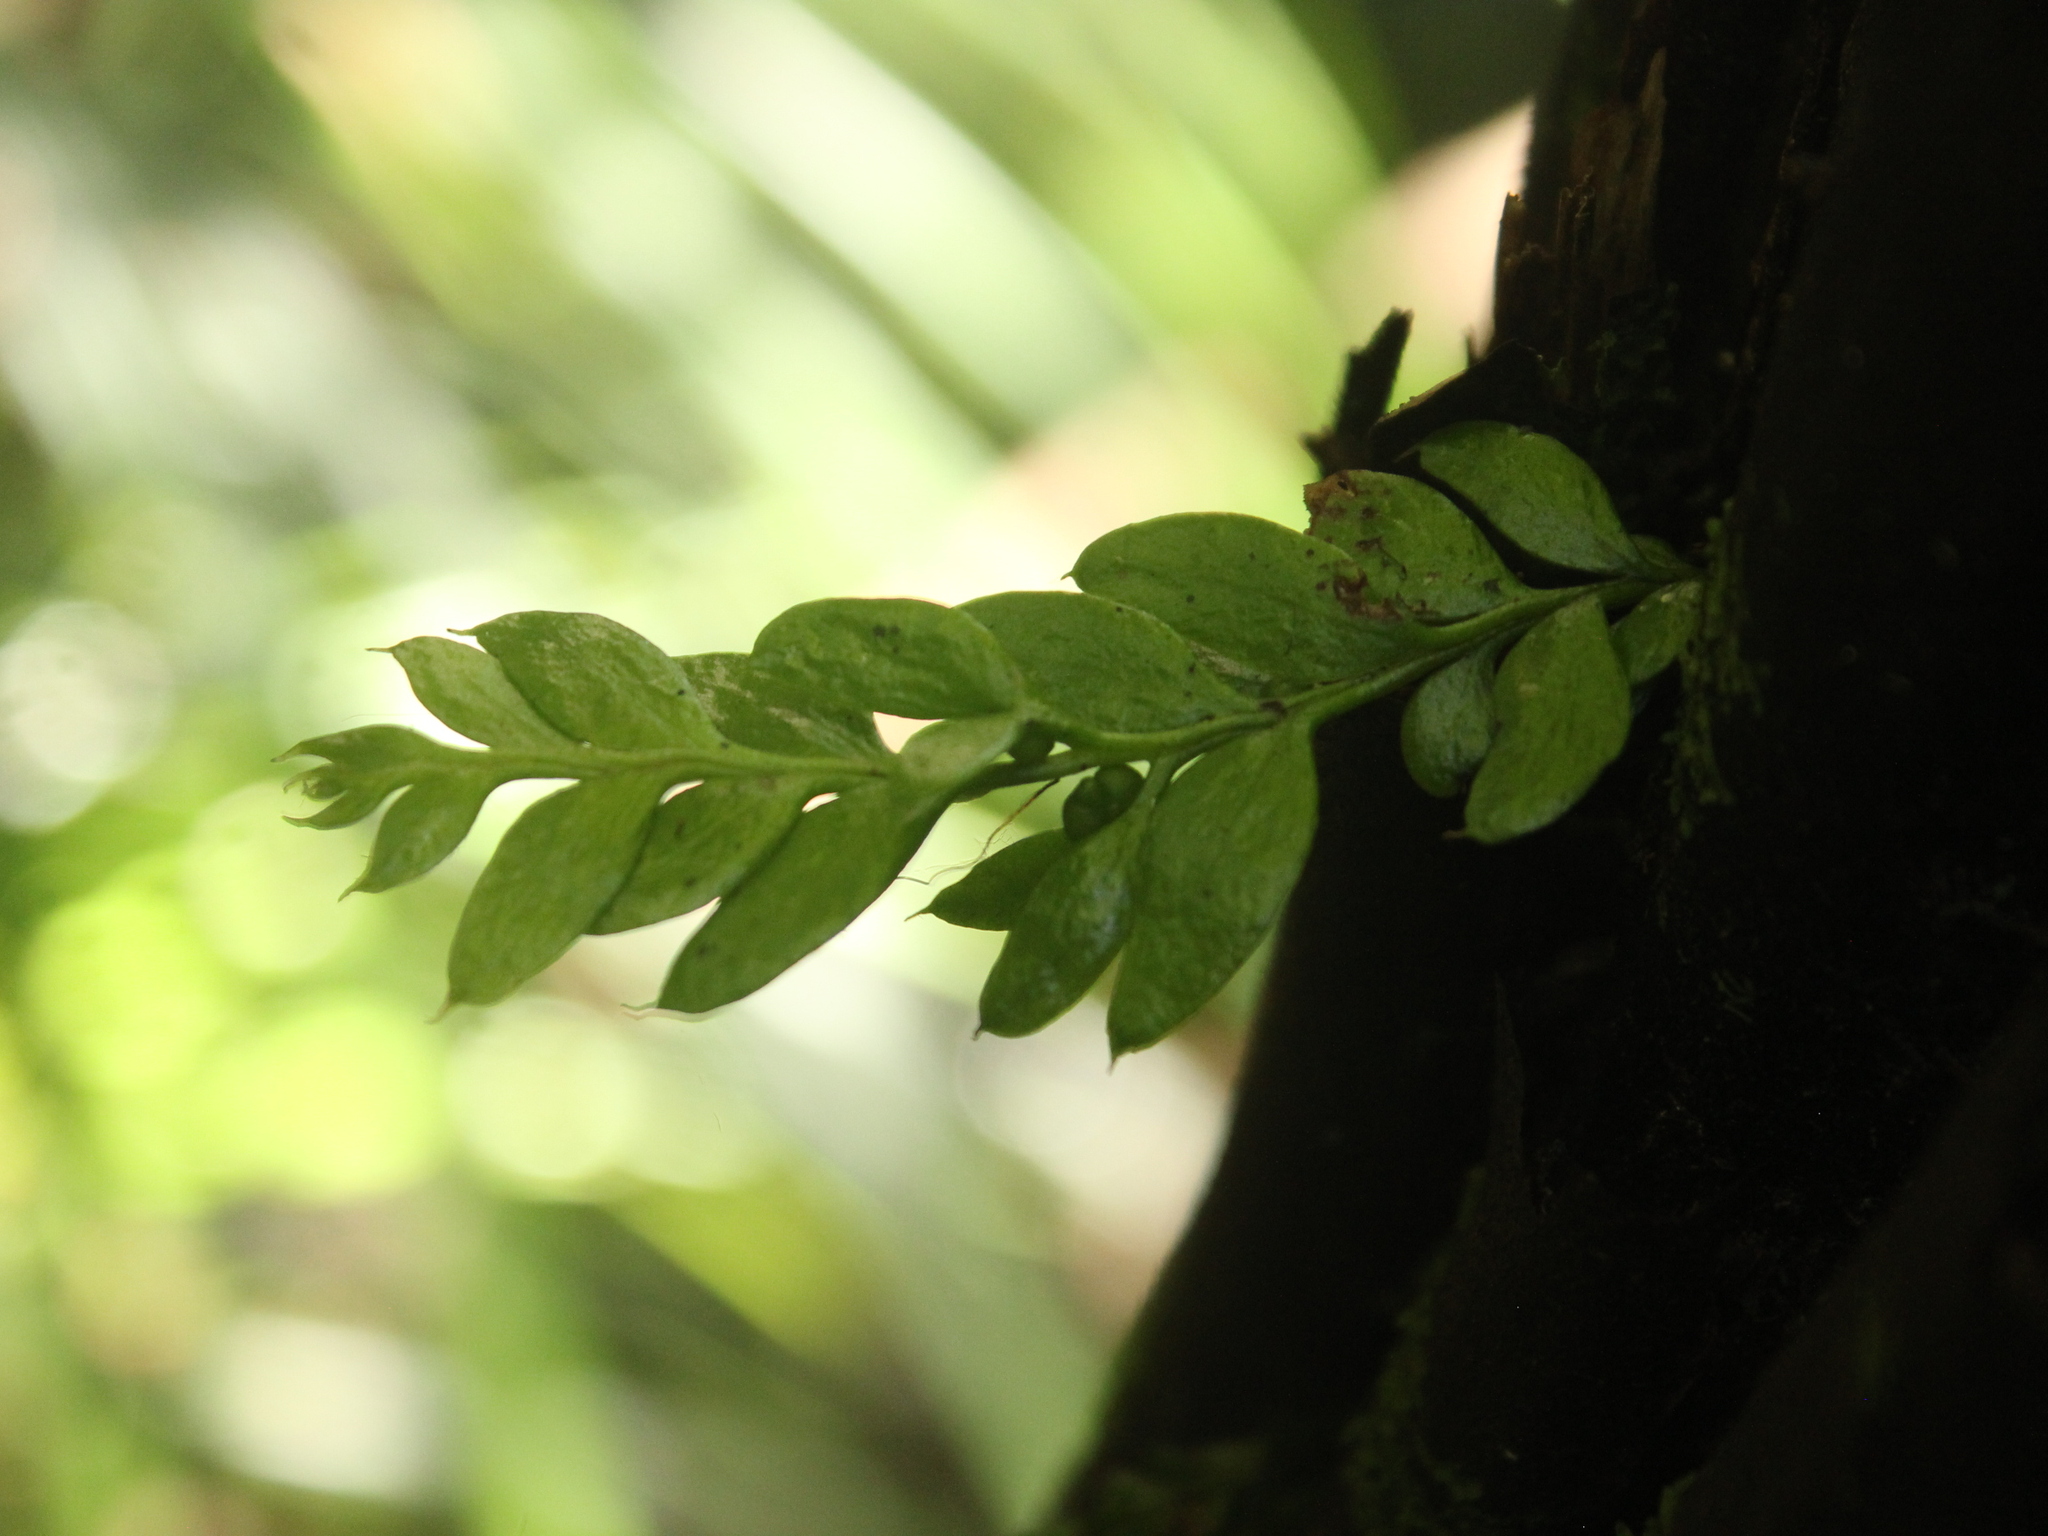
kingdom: Plantae
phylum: Tracheophyta
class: Polypodiopsida
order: Psilotales
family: Psilotaceae
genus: Tmesipteris
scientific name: Tmesipteris lanceolata
